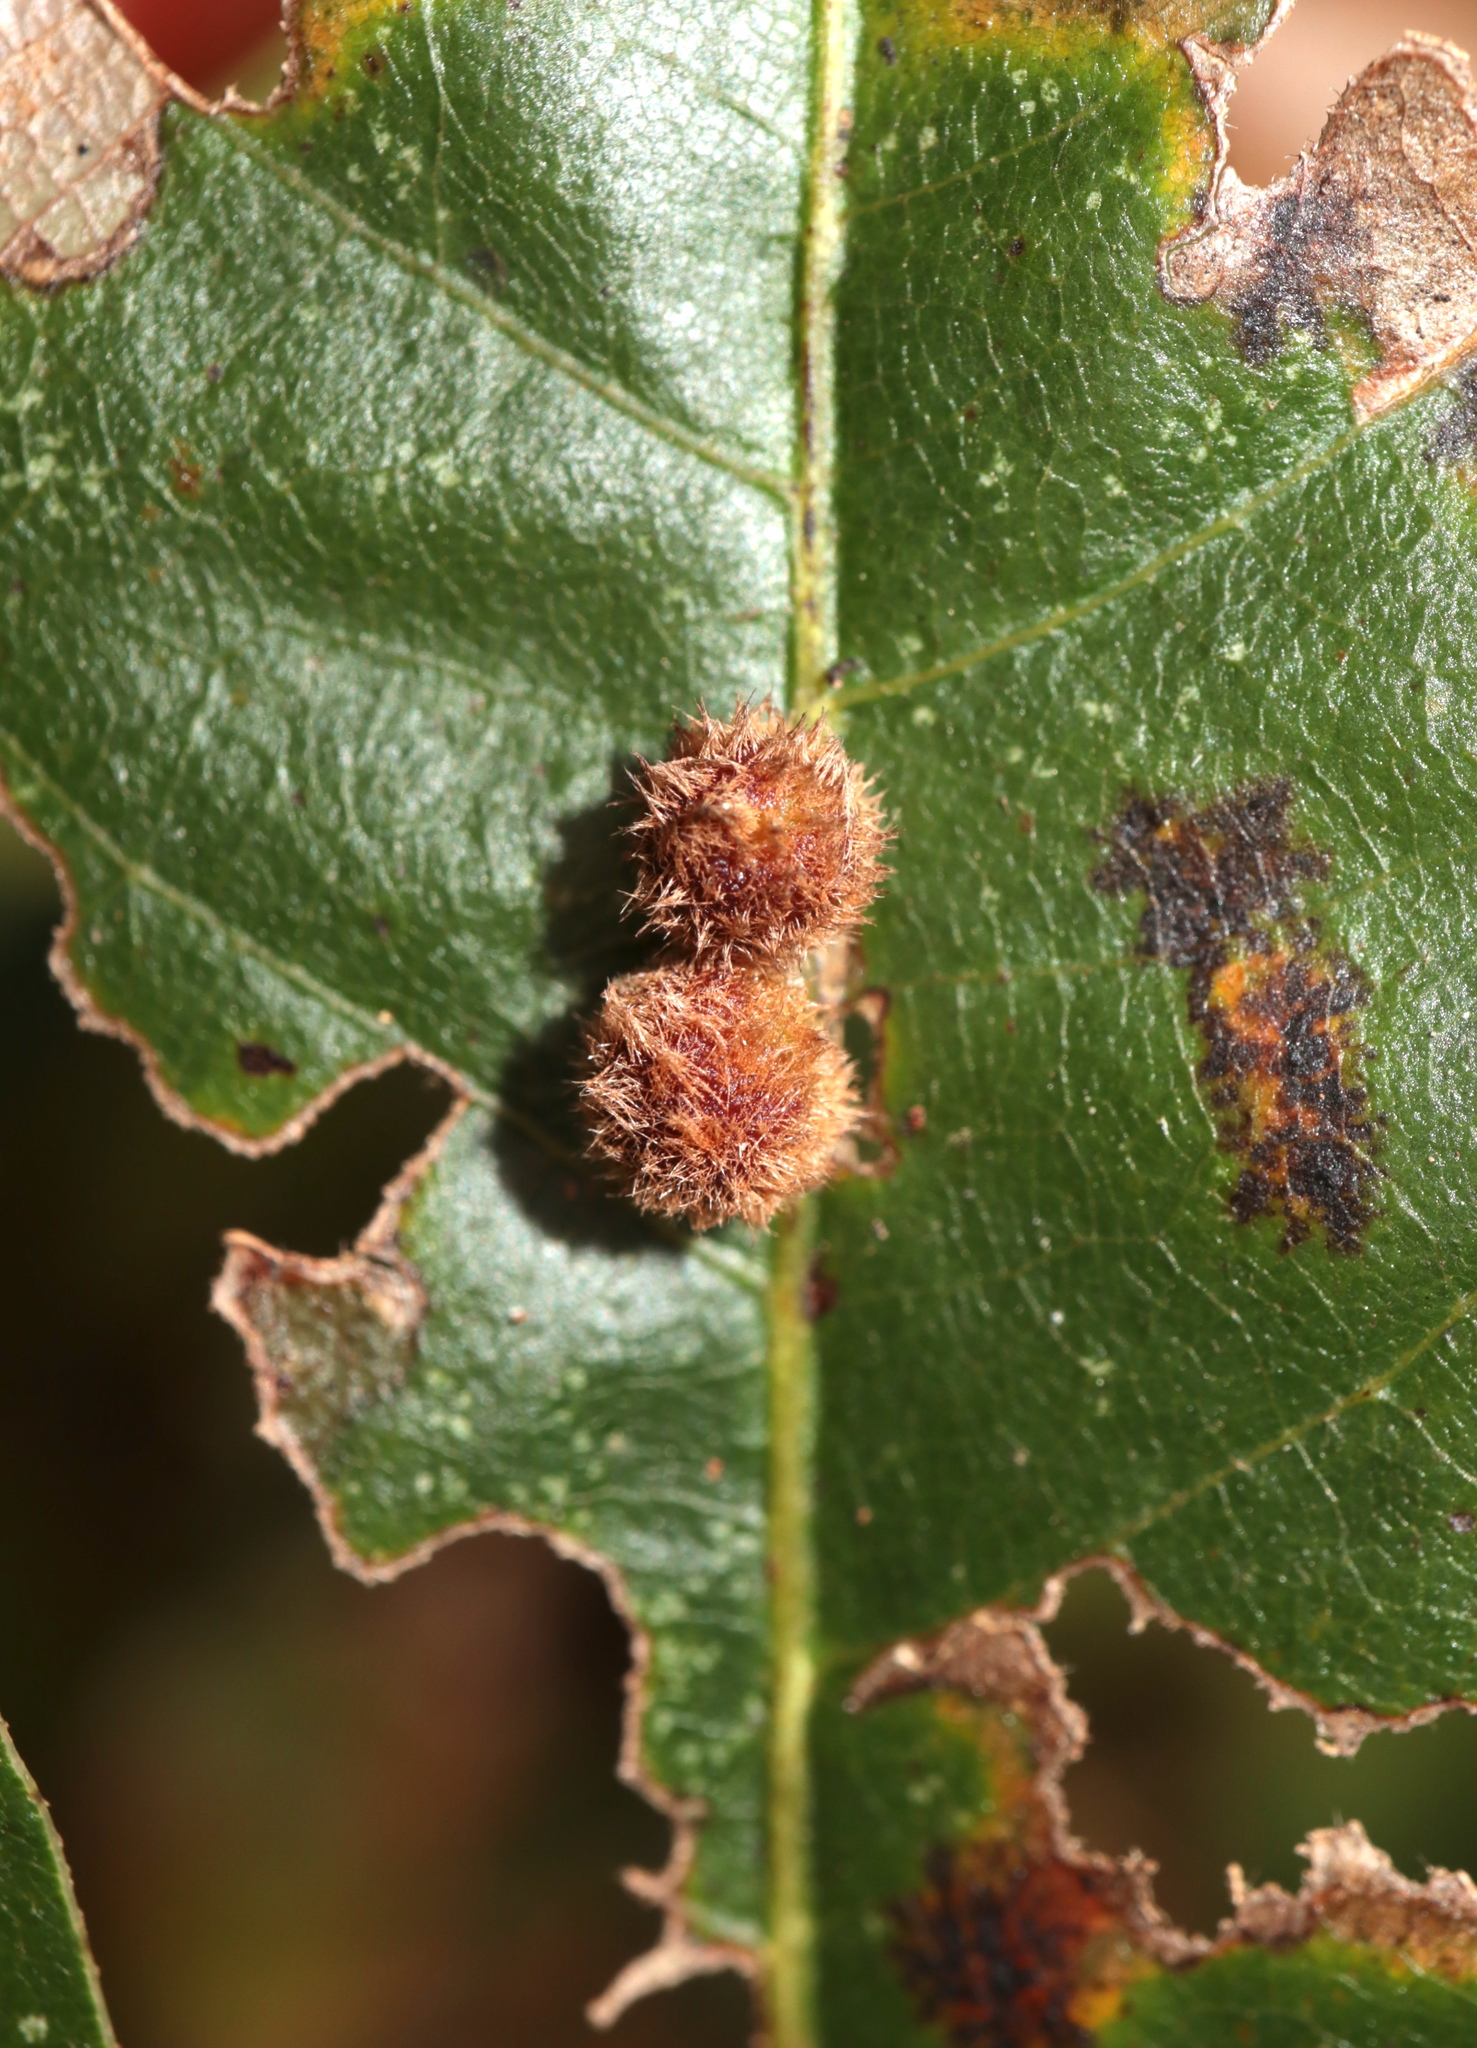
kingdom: Animalia
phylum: Arthropoda
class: Insecta
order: Hymenoptera
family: Cynipidae
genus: Callirhytis
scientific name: Callirhytis
